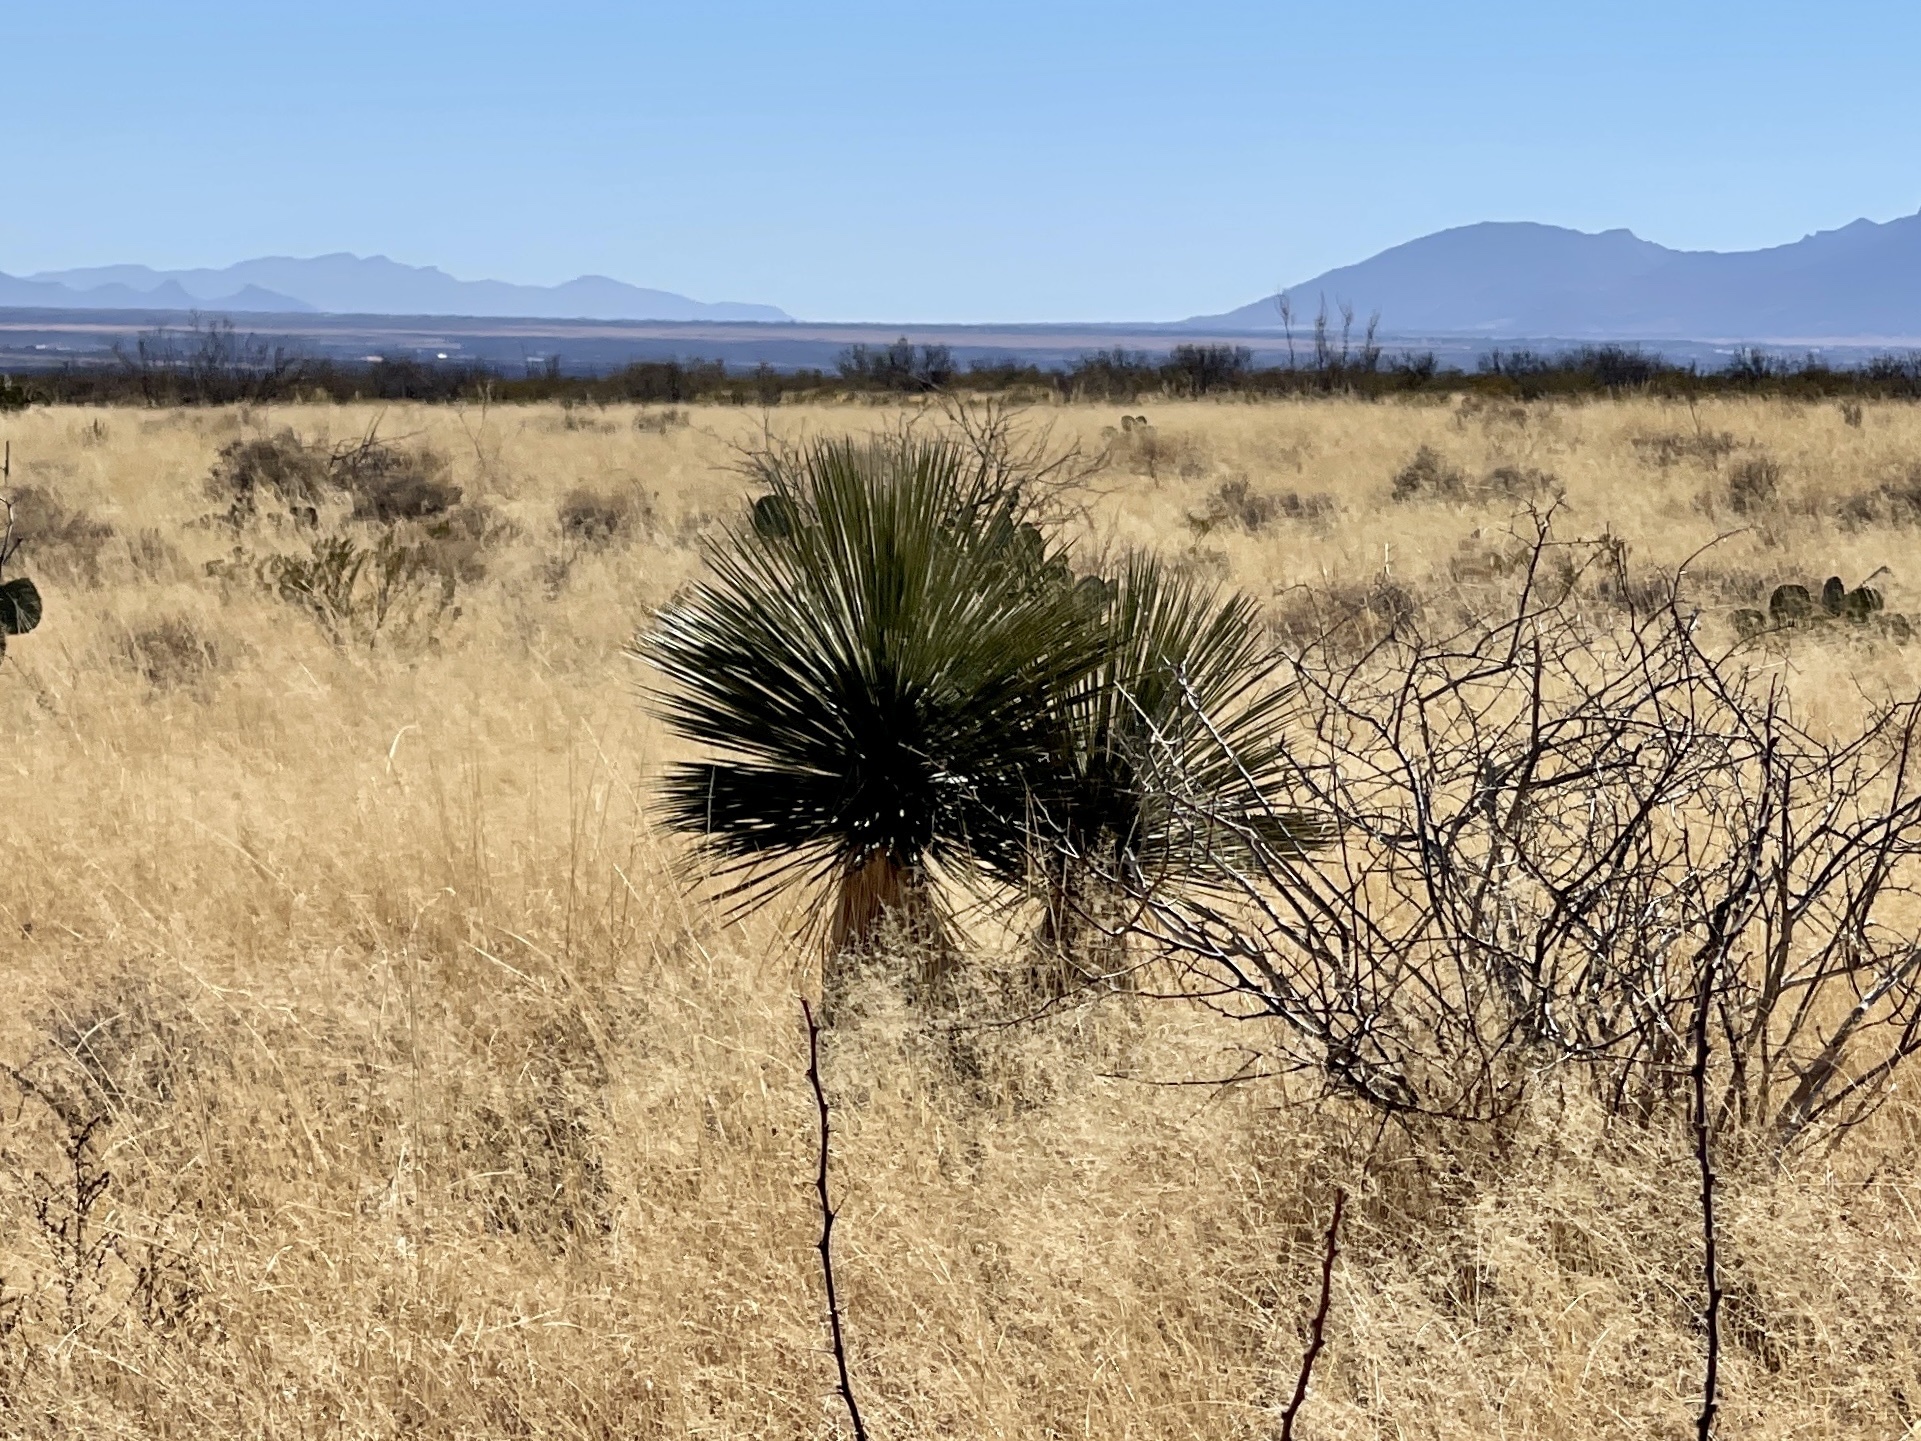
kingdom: Plantae
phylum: Tracheophyta
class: Liliopsida
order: Asparagales
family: Asparagaceae
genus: Yucca
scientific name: Yucca elata
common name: Palmella
